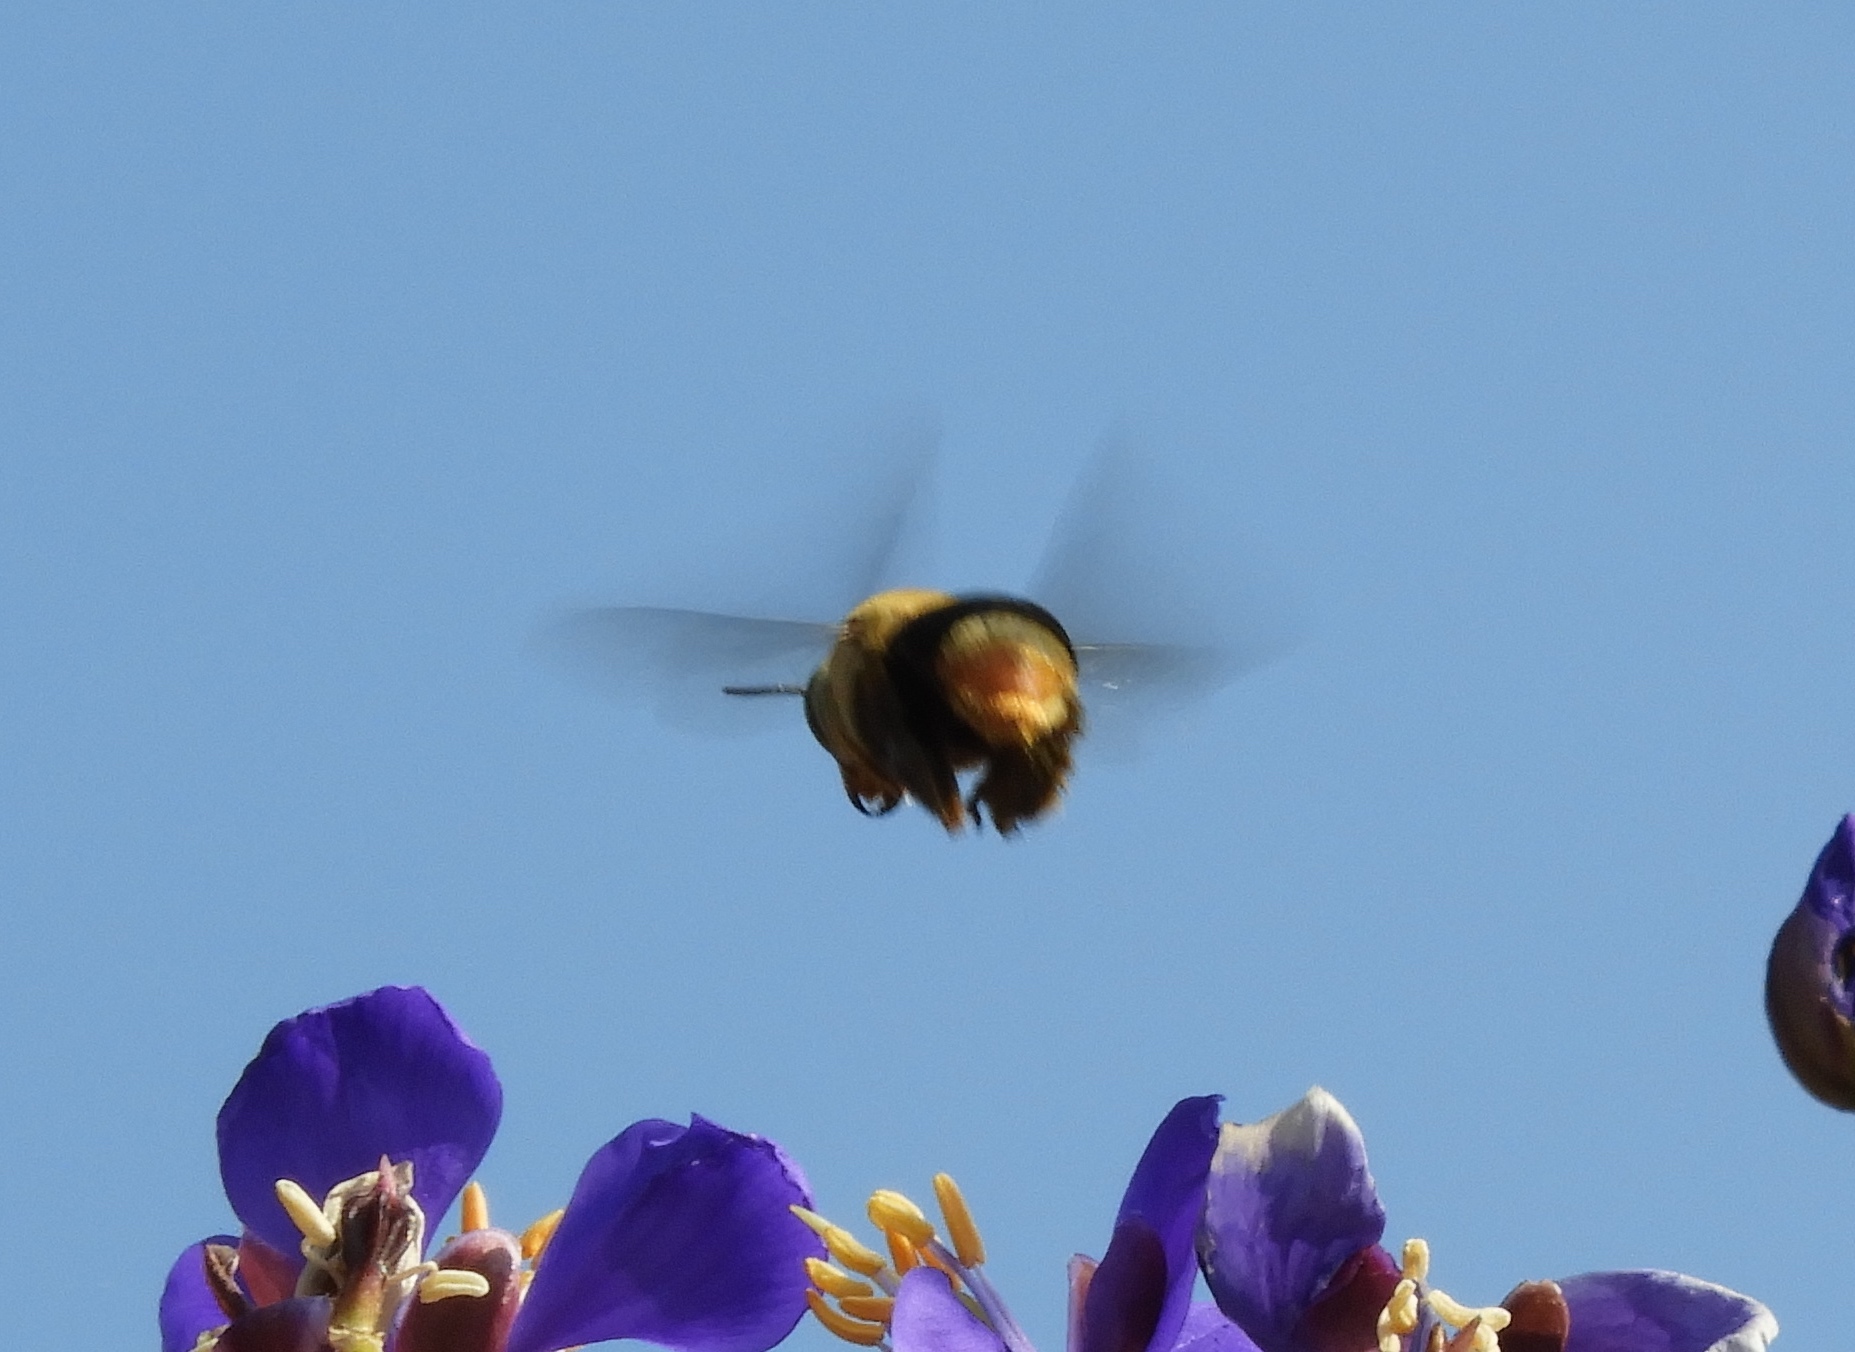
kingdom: Animalia
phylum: Arthropoda
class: Insecta
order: Hymenoptera
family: Apidae
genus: Centris
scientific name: Centris
